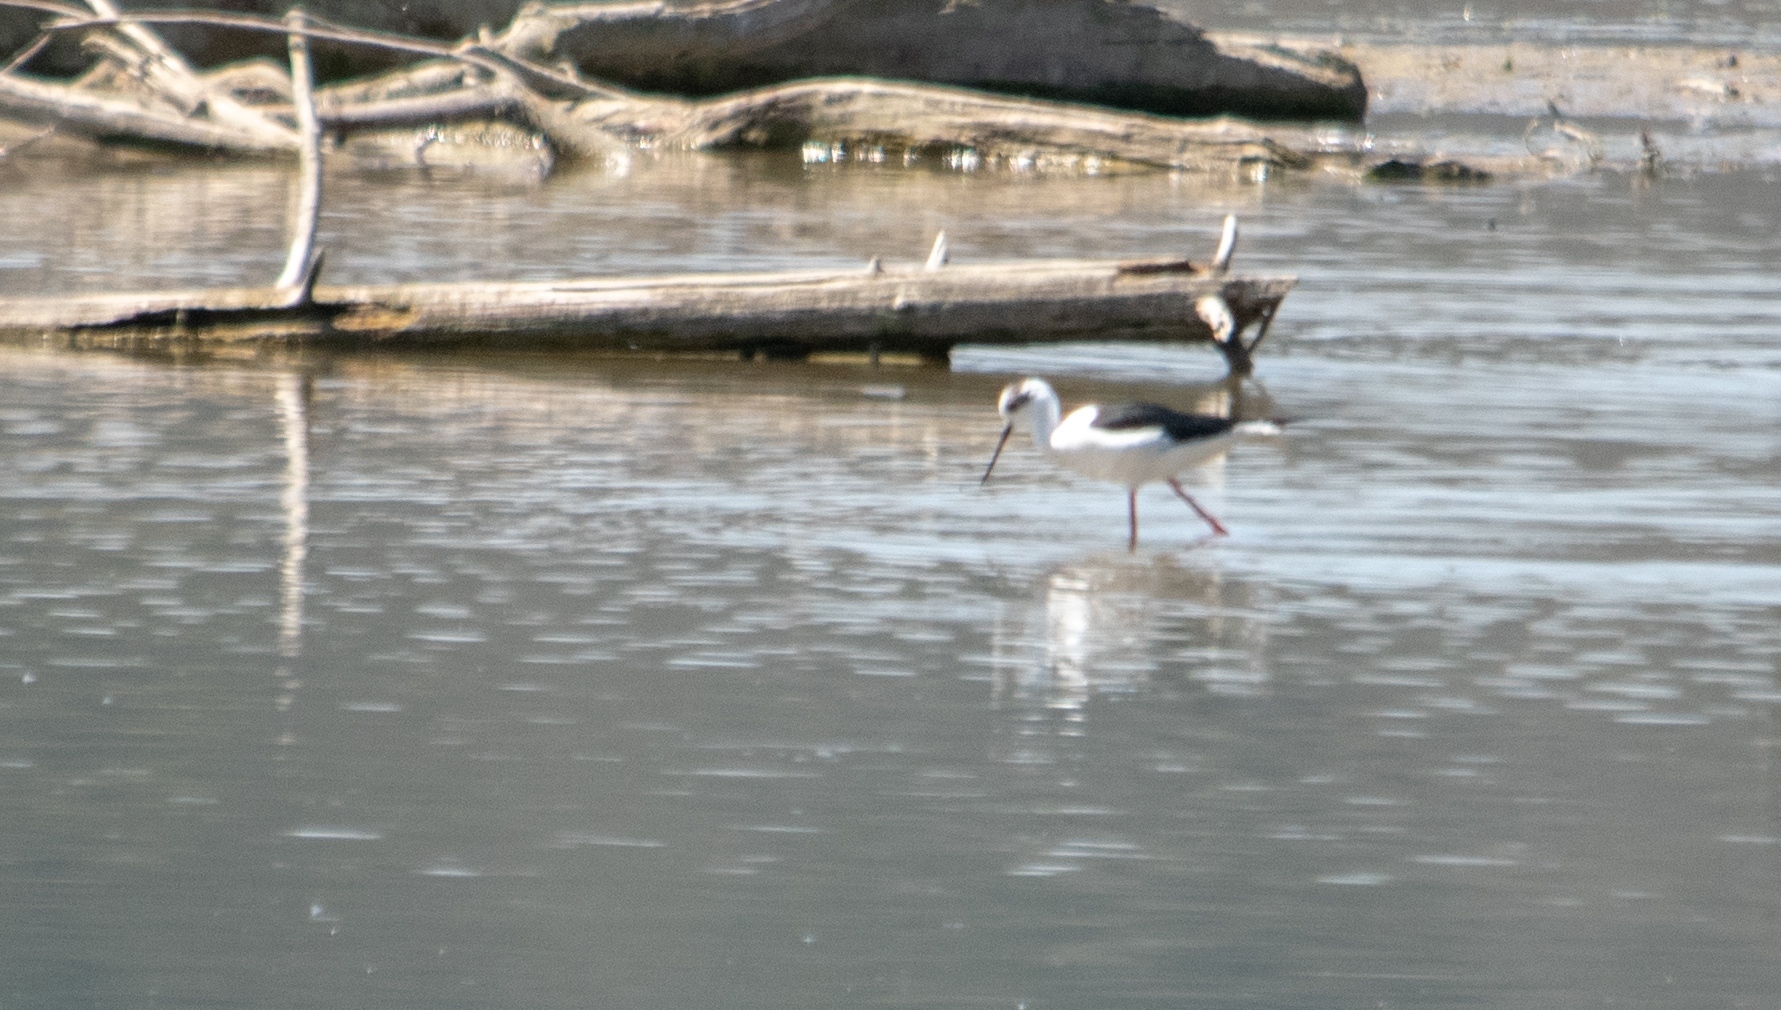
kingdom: Animalia
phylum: Chordata
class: Aves
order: Charadriiformes
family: Recurvirostridae
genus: Himantopus
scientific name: Himantopus himantopus
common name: Black-winged stilt
